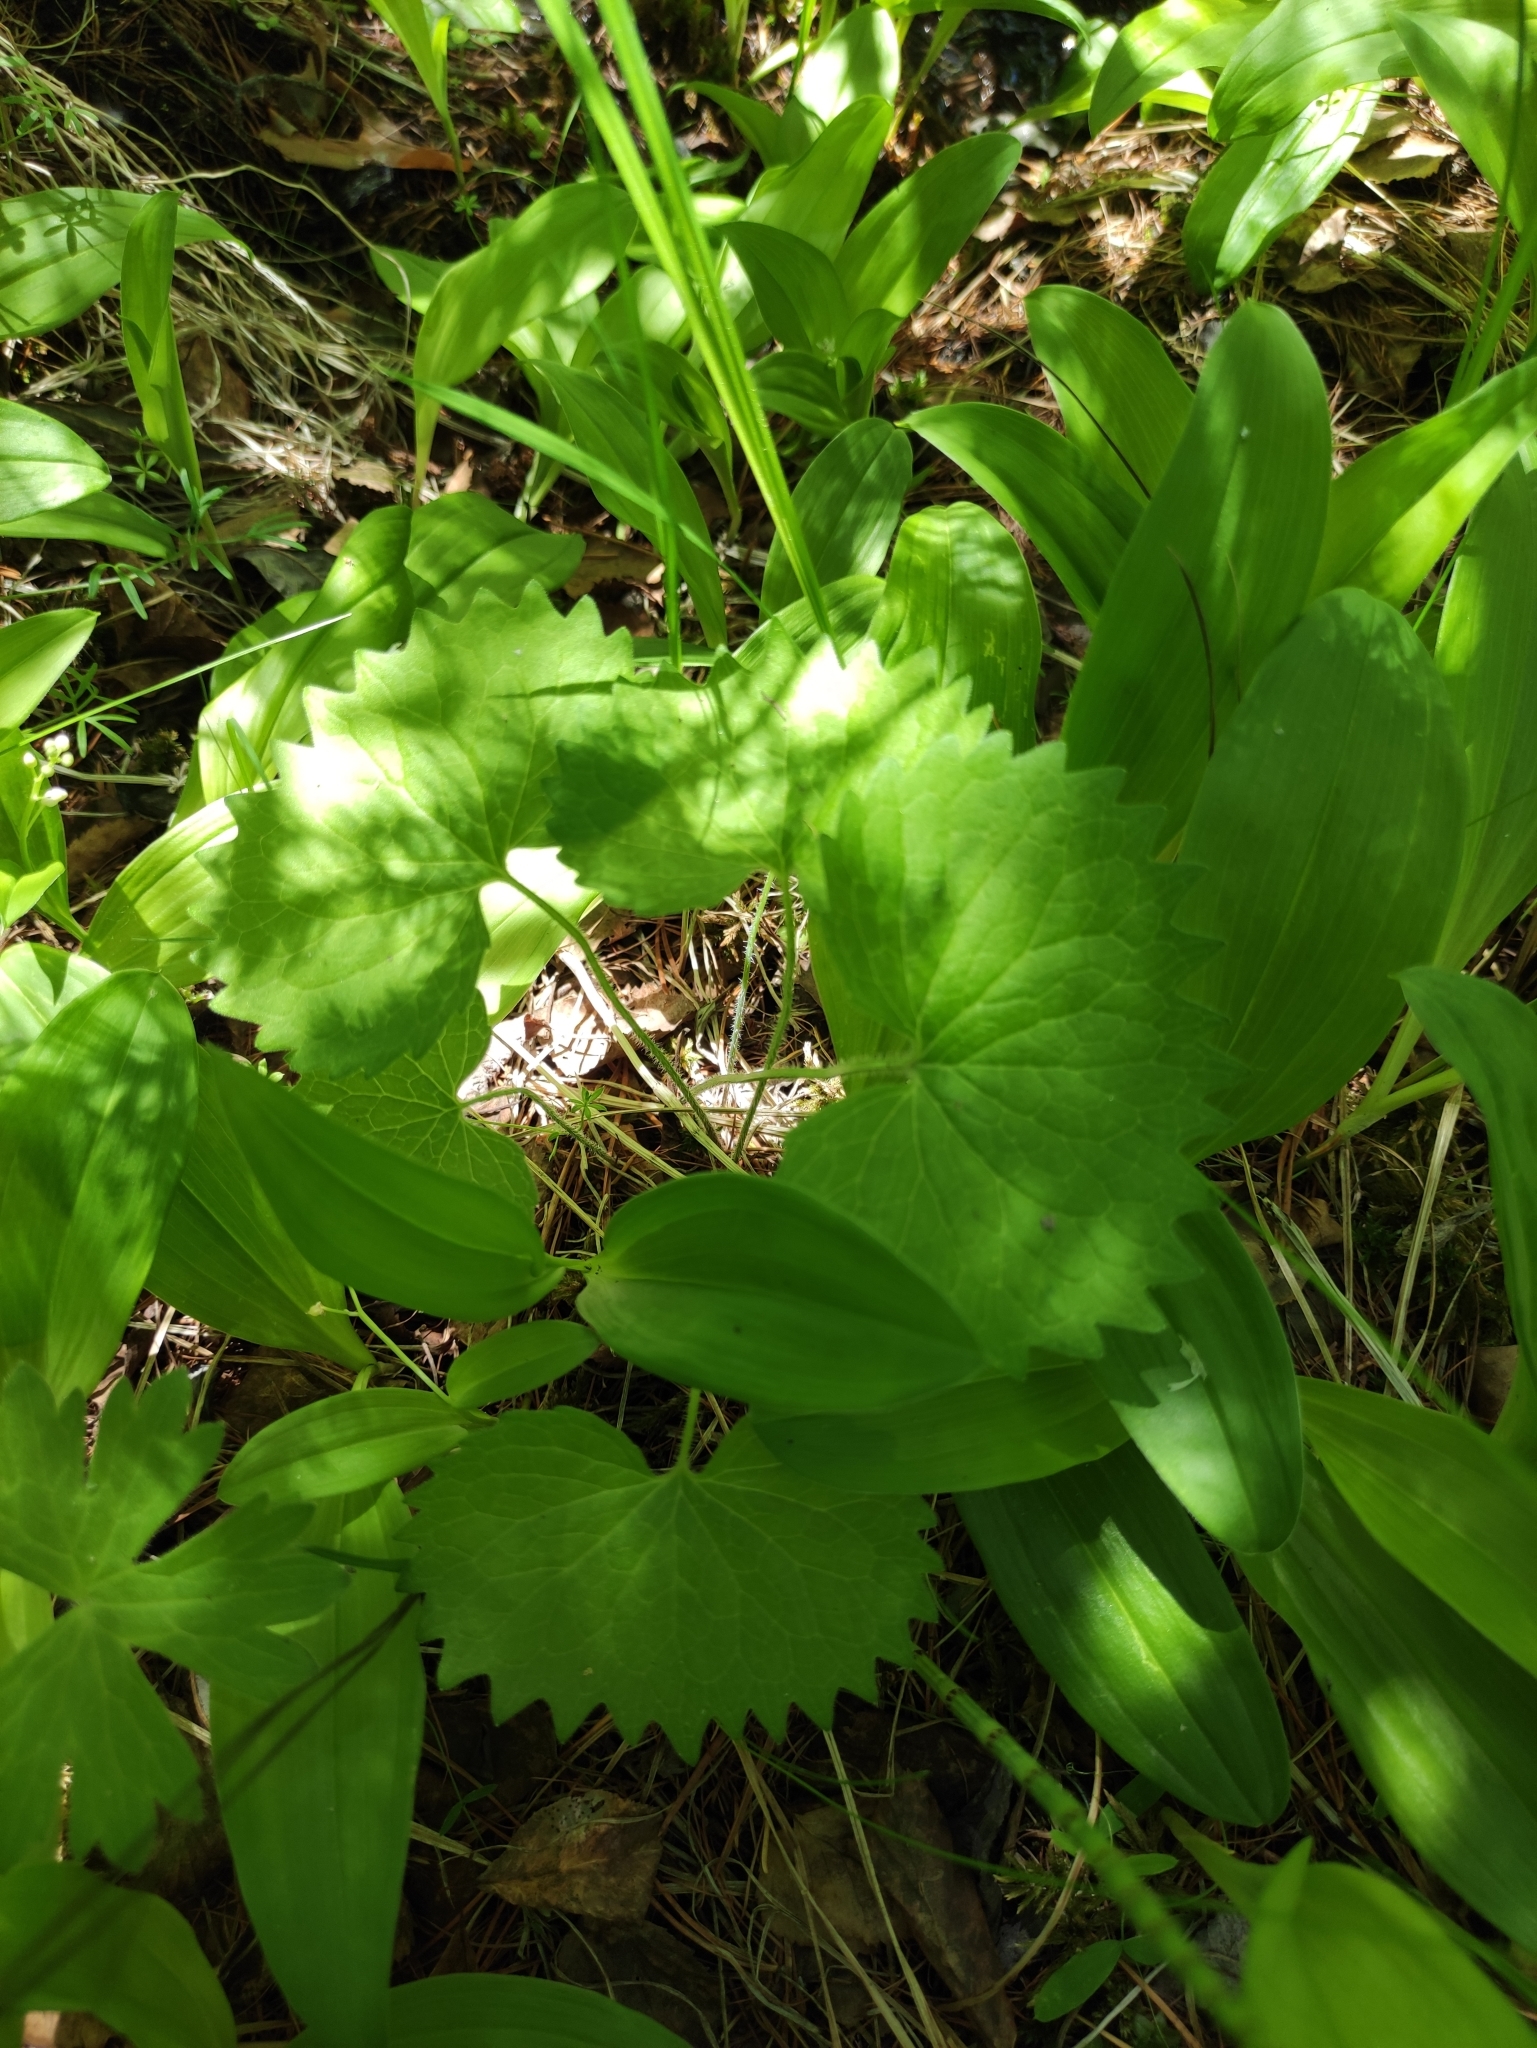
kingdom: Plantae
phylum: Tracheophyta
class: Magnoliopsida
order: Malpighiales
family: Violaceae
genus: Viola
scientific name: Viola uniflora
